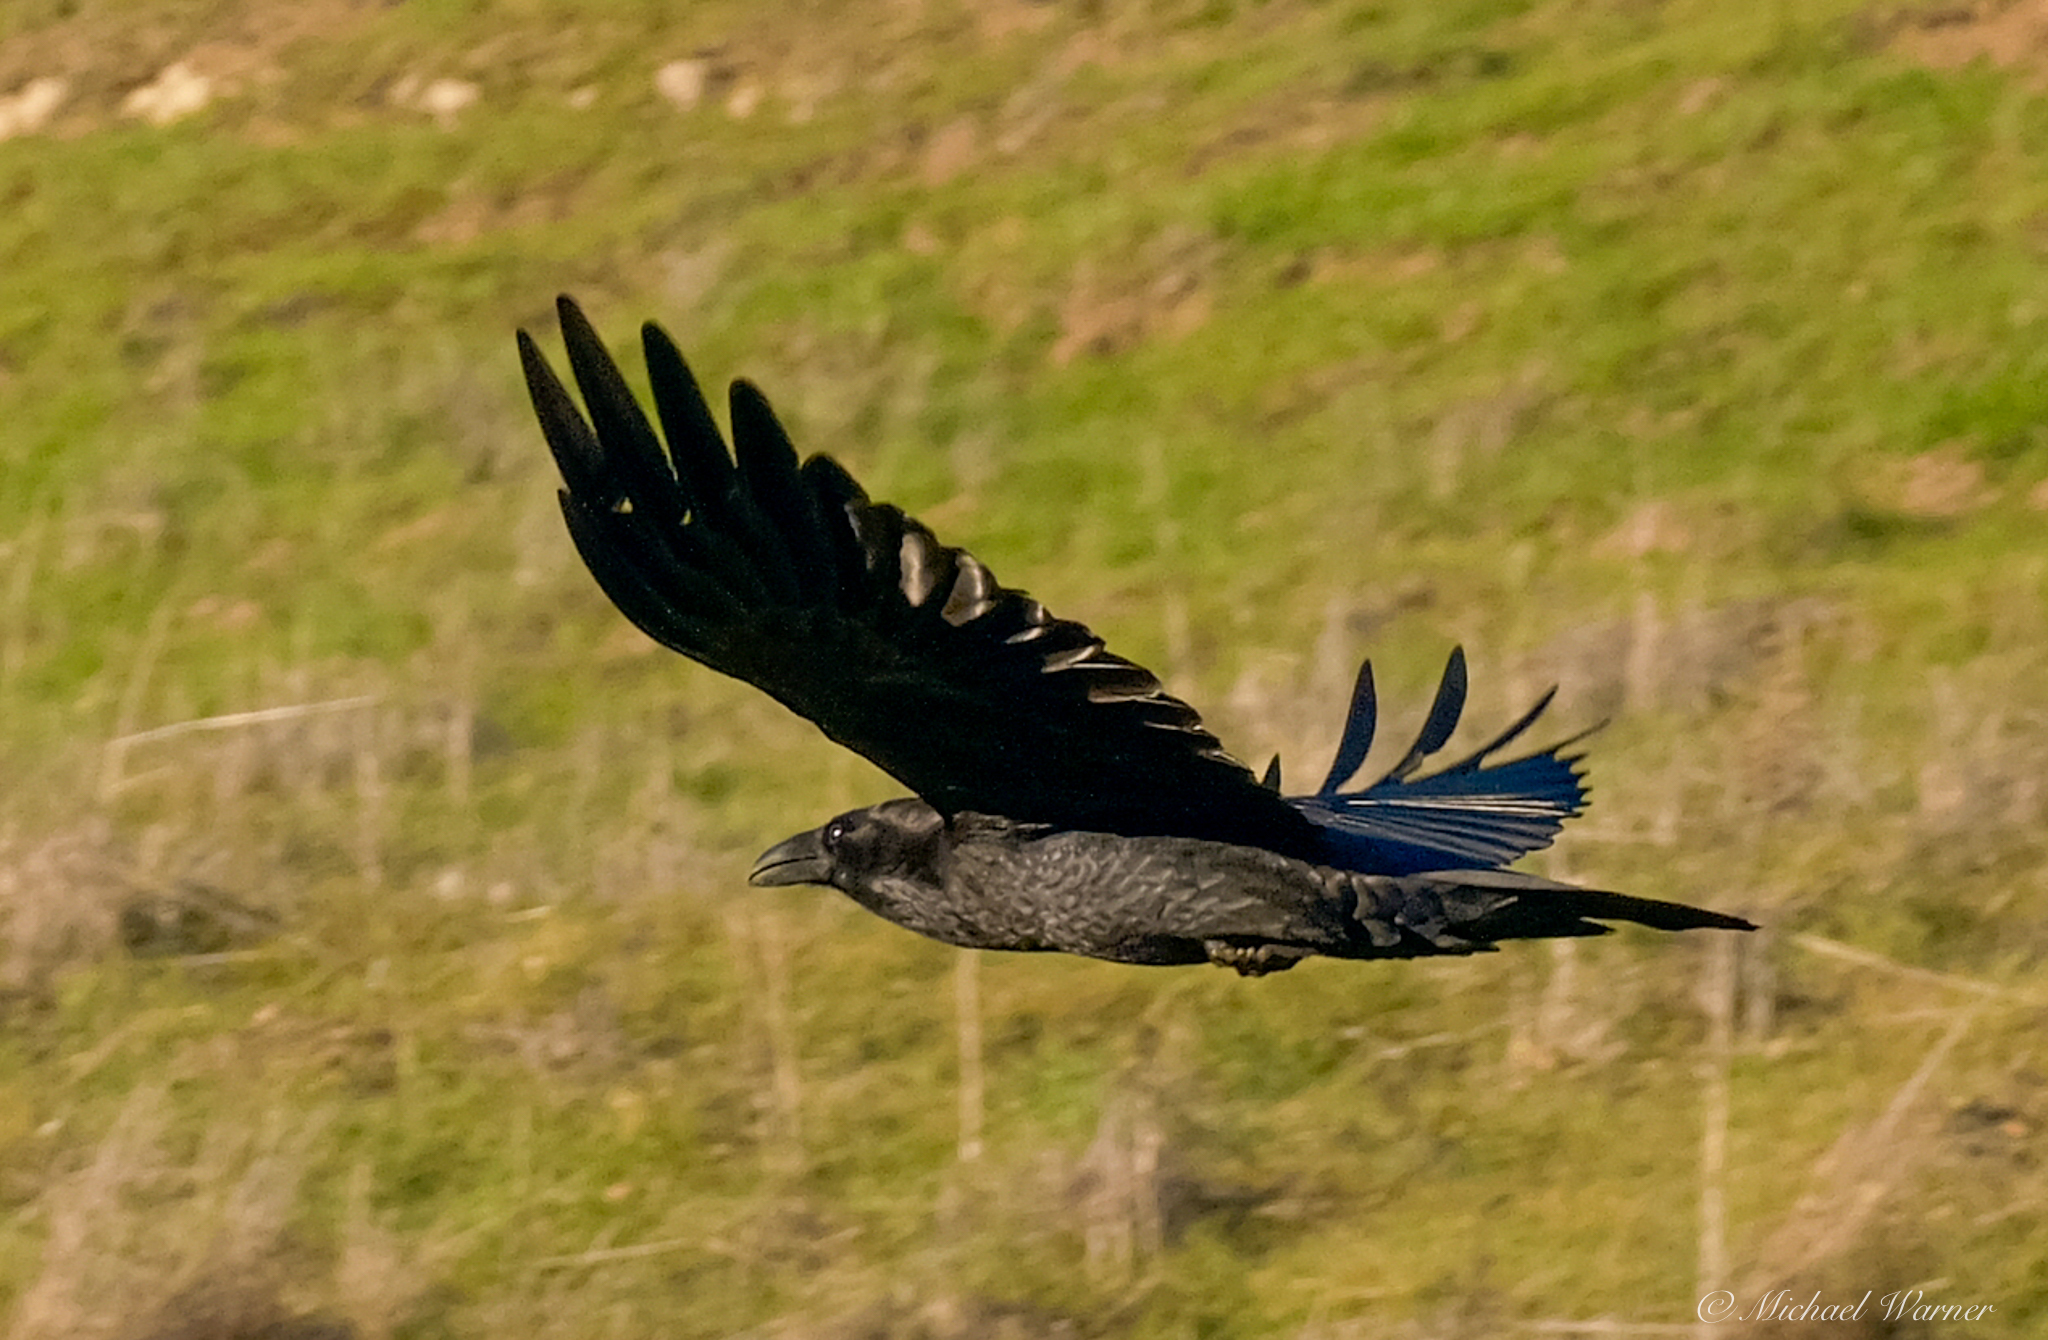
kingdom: Animalia
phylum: Chordata
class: Aves
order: Passeriformes
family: Corvidae
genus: Corvus
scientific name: Corvus corax
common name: Common raven
